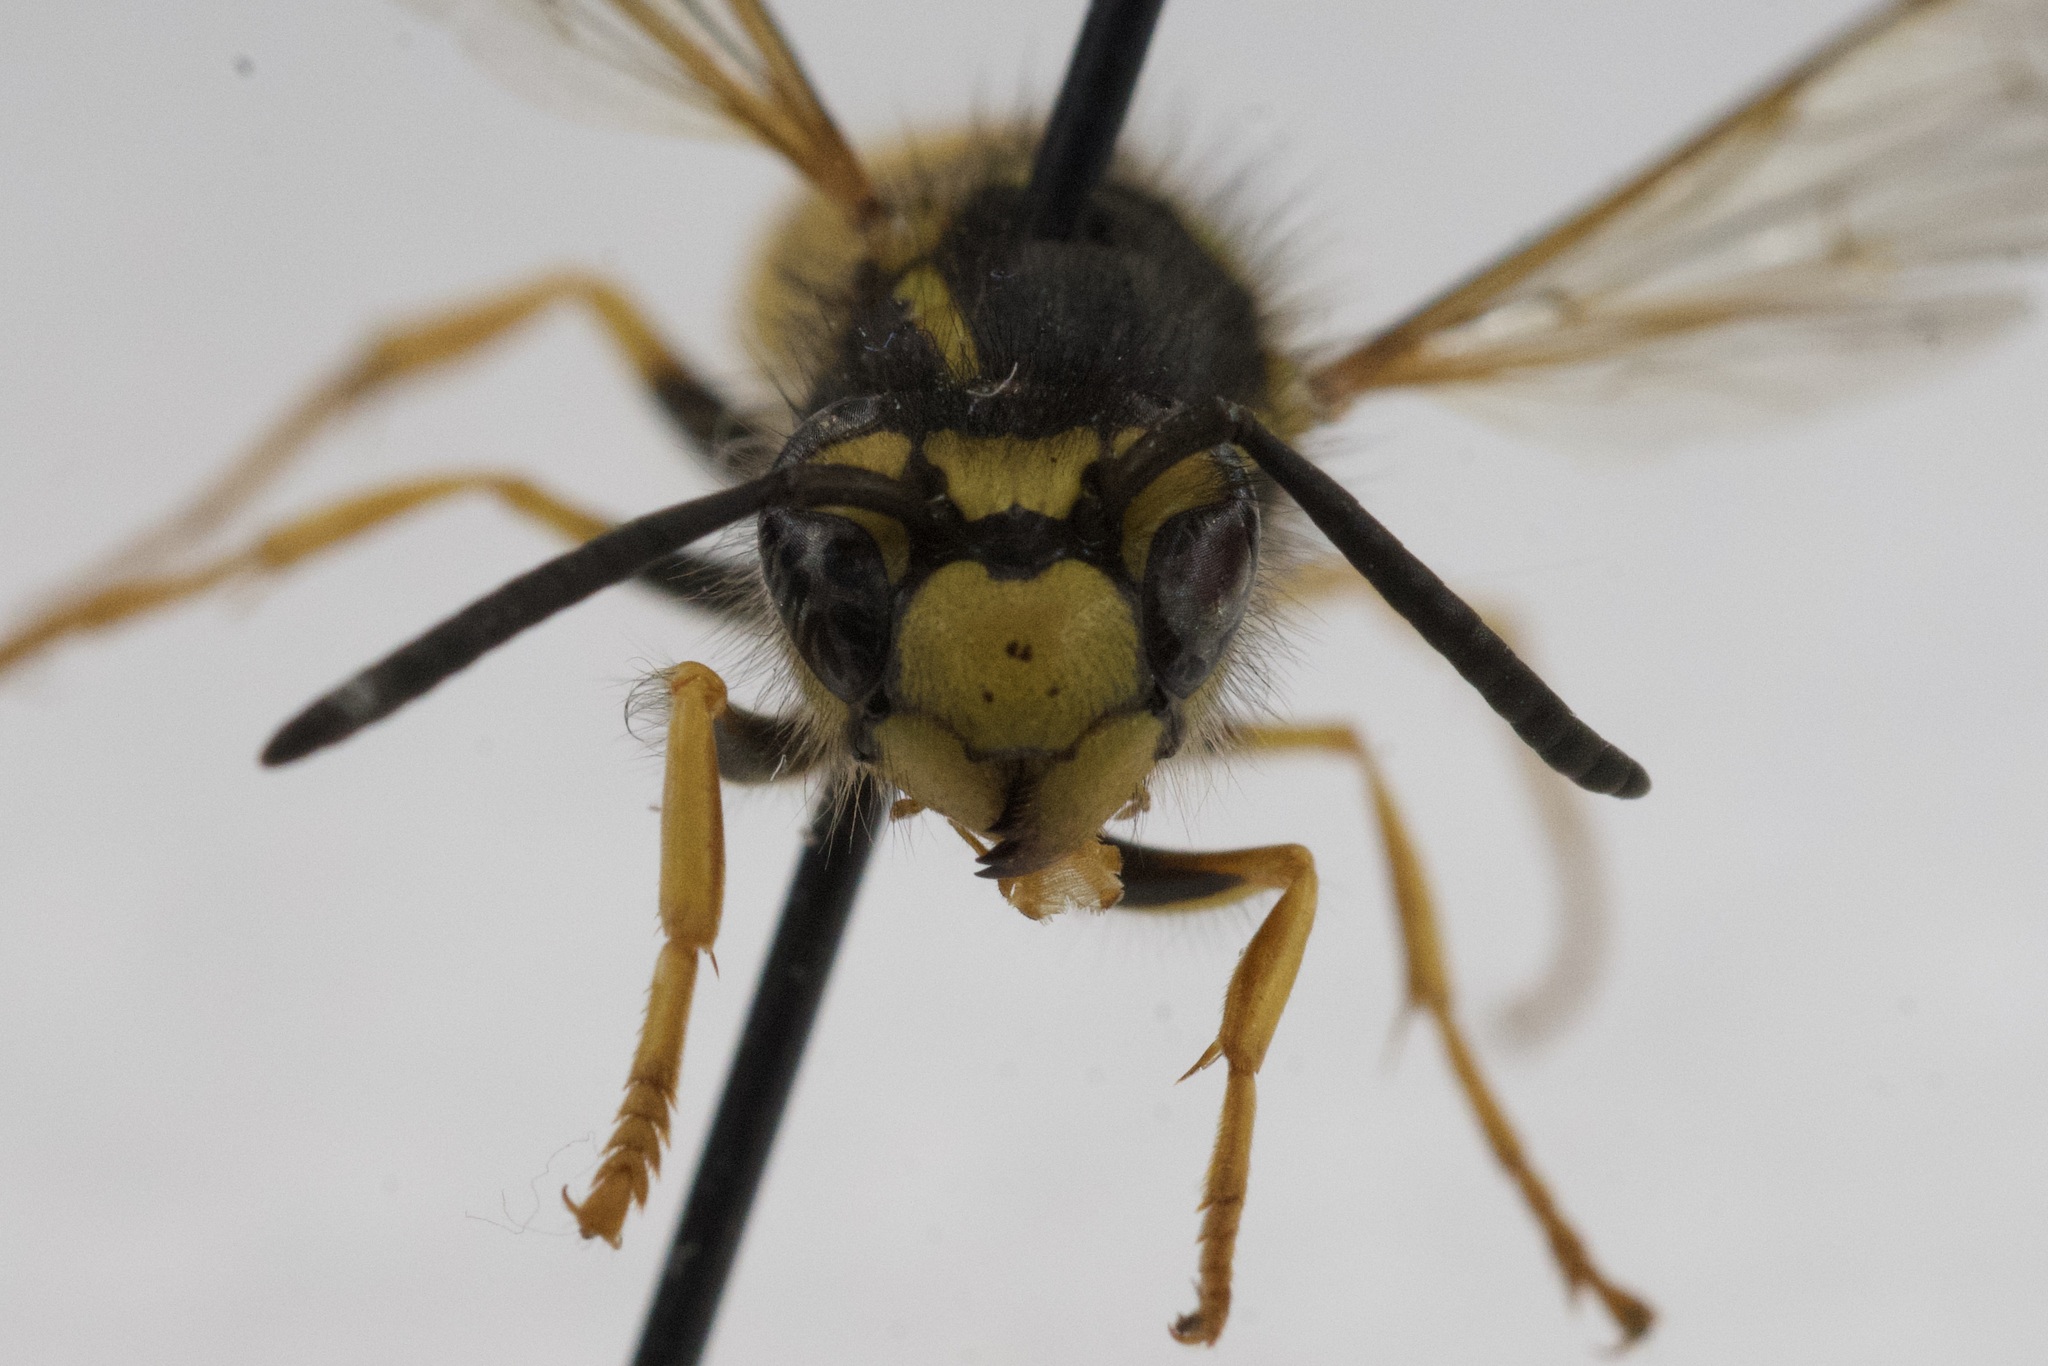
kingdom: Animalia
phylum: Arthropoda
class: Insecta
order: Hymenoptera
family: Vespidae
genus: Vespula
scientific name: Vespula germanica
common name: German wasp
